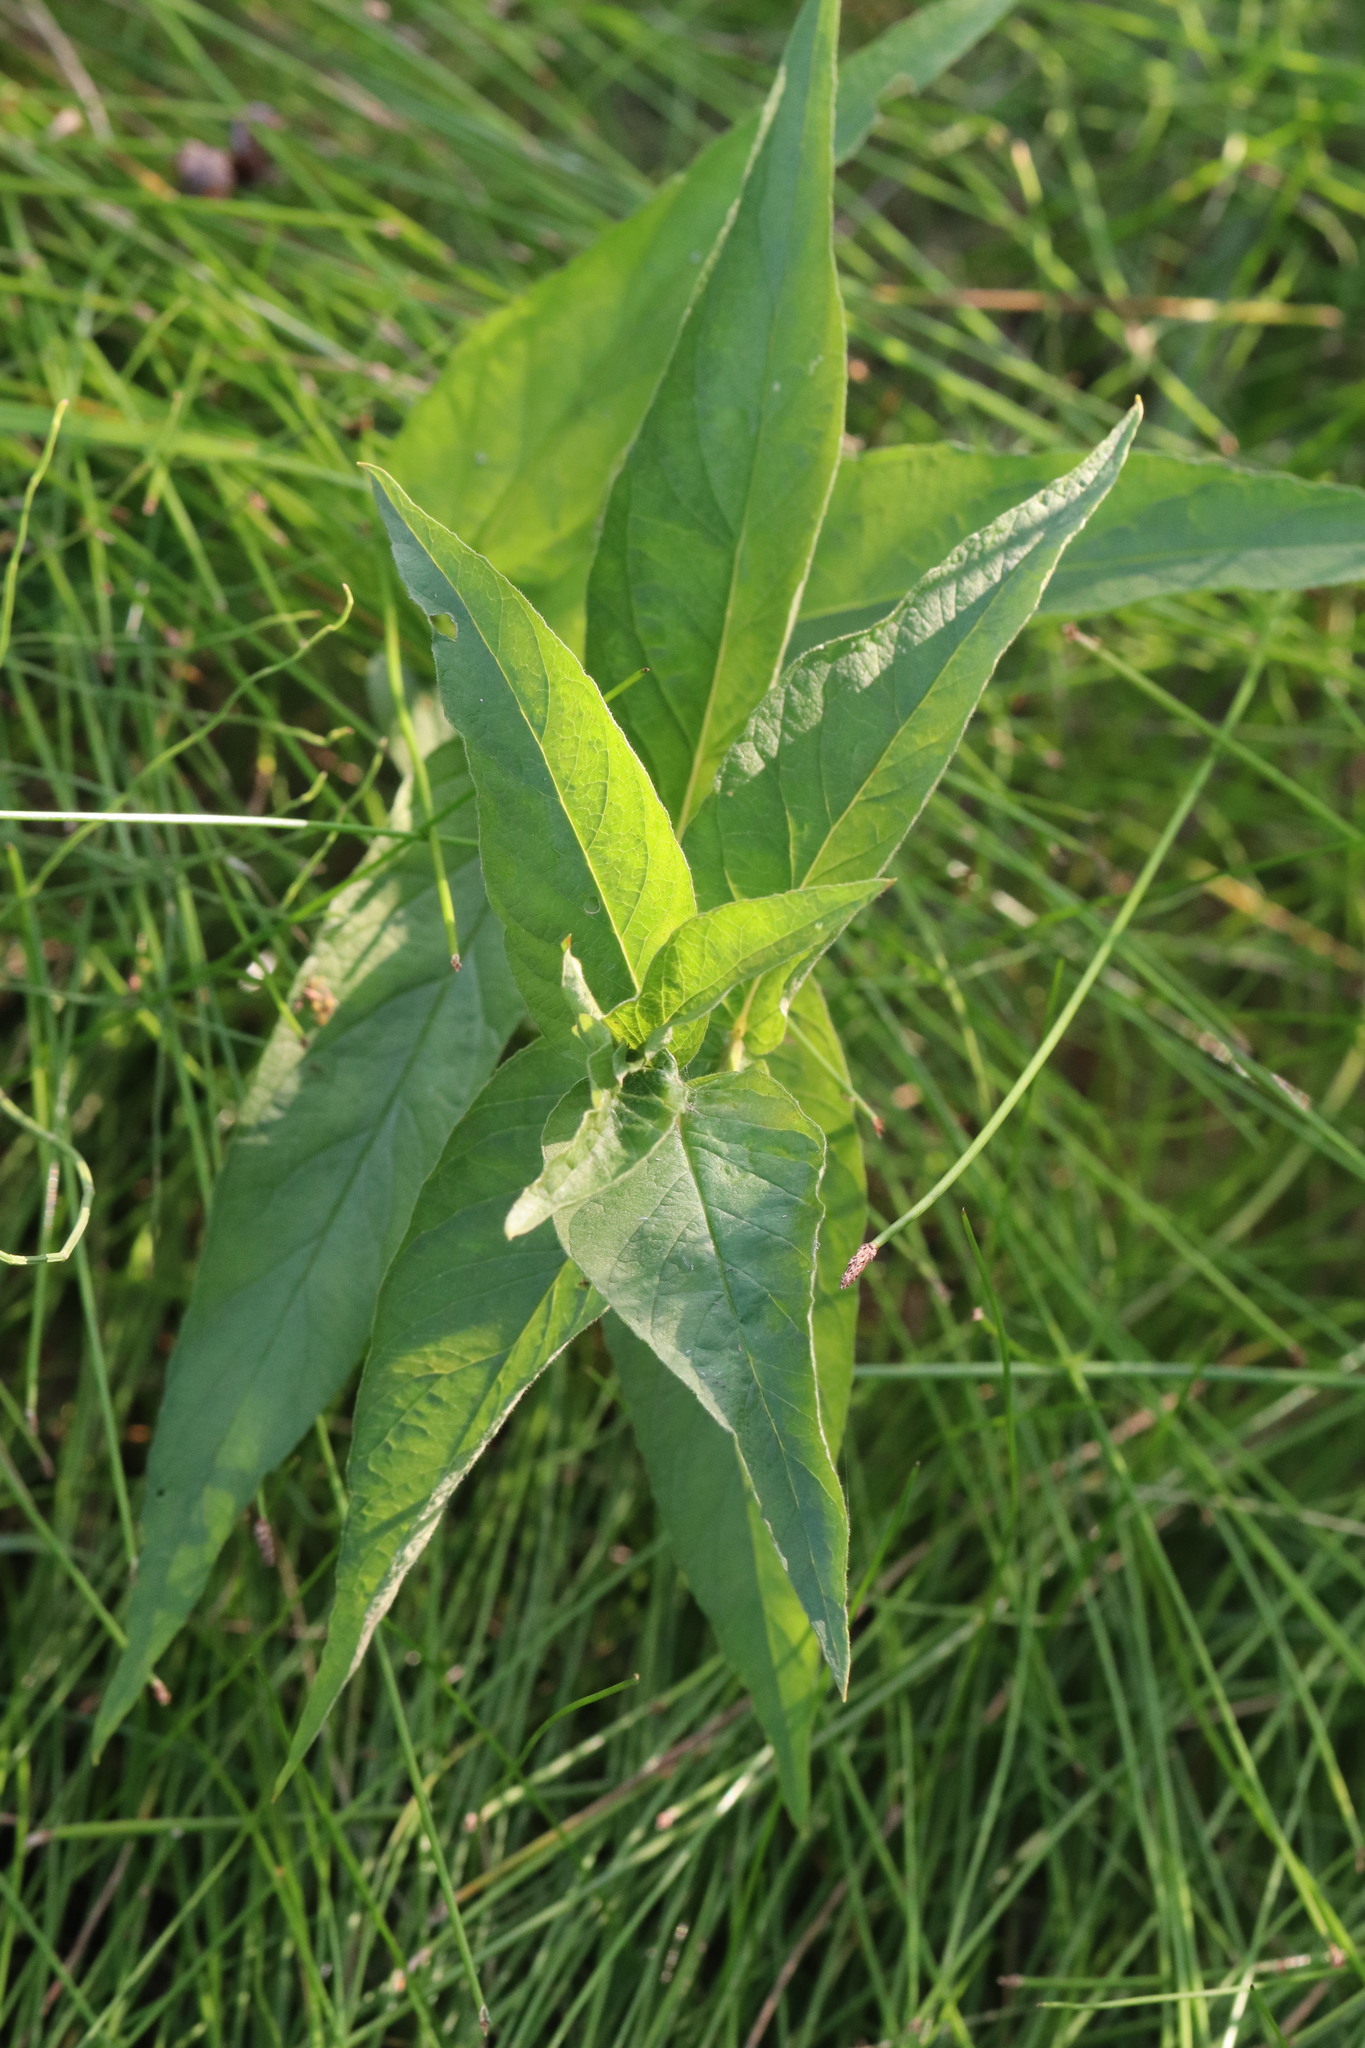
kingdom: Plantae
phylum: Tracheophyta
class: Magnoliopsida
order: Ericales
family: Primulaceae
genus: Lysimachia
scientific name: Lysimachia vulgaris
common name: Yellow loosestrife
